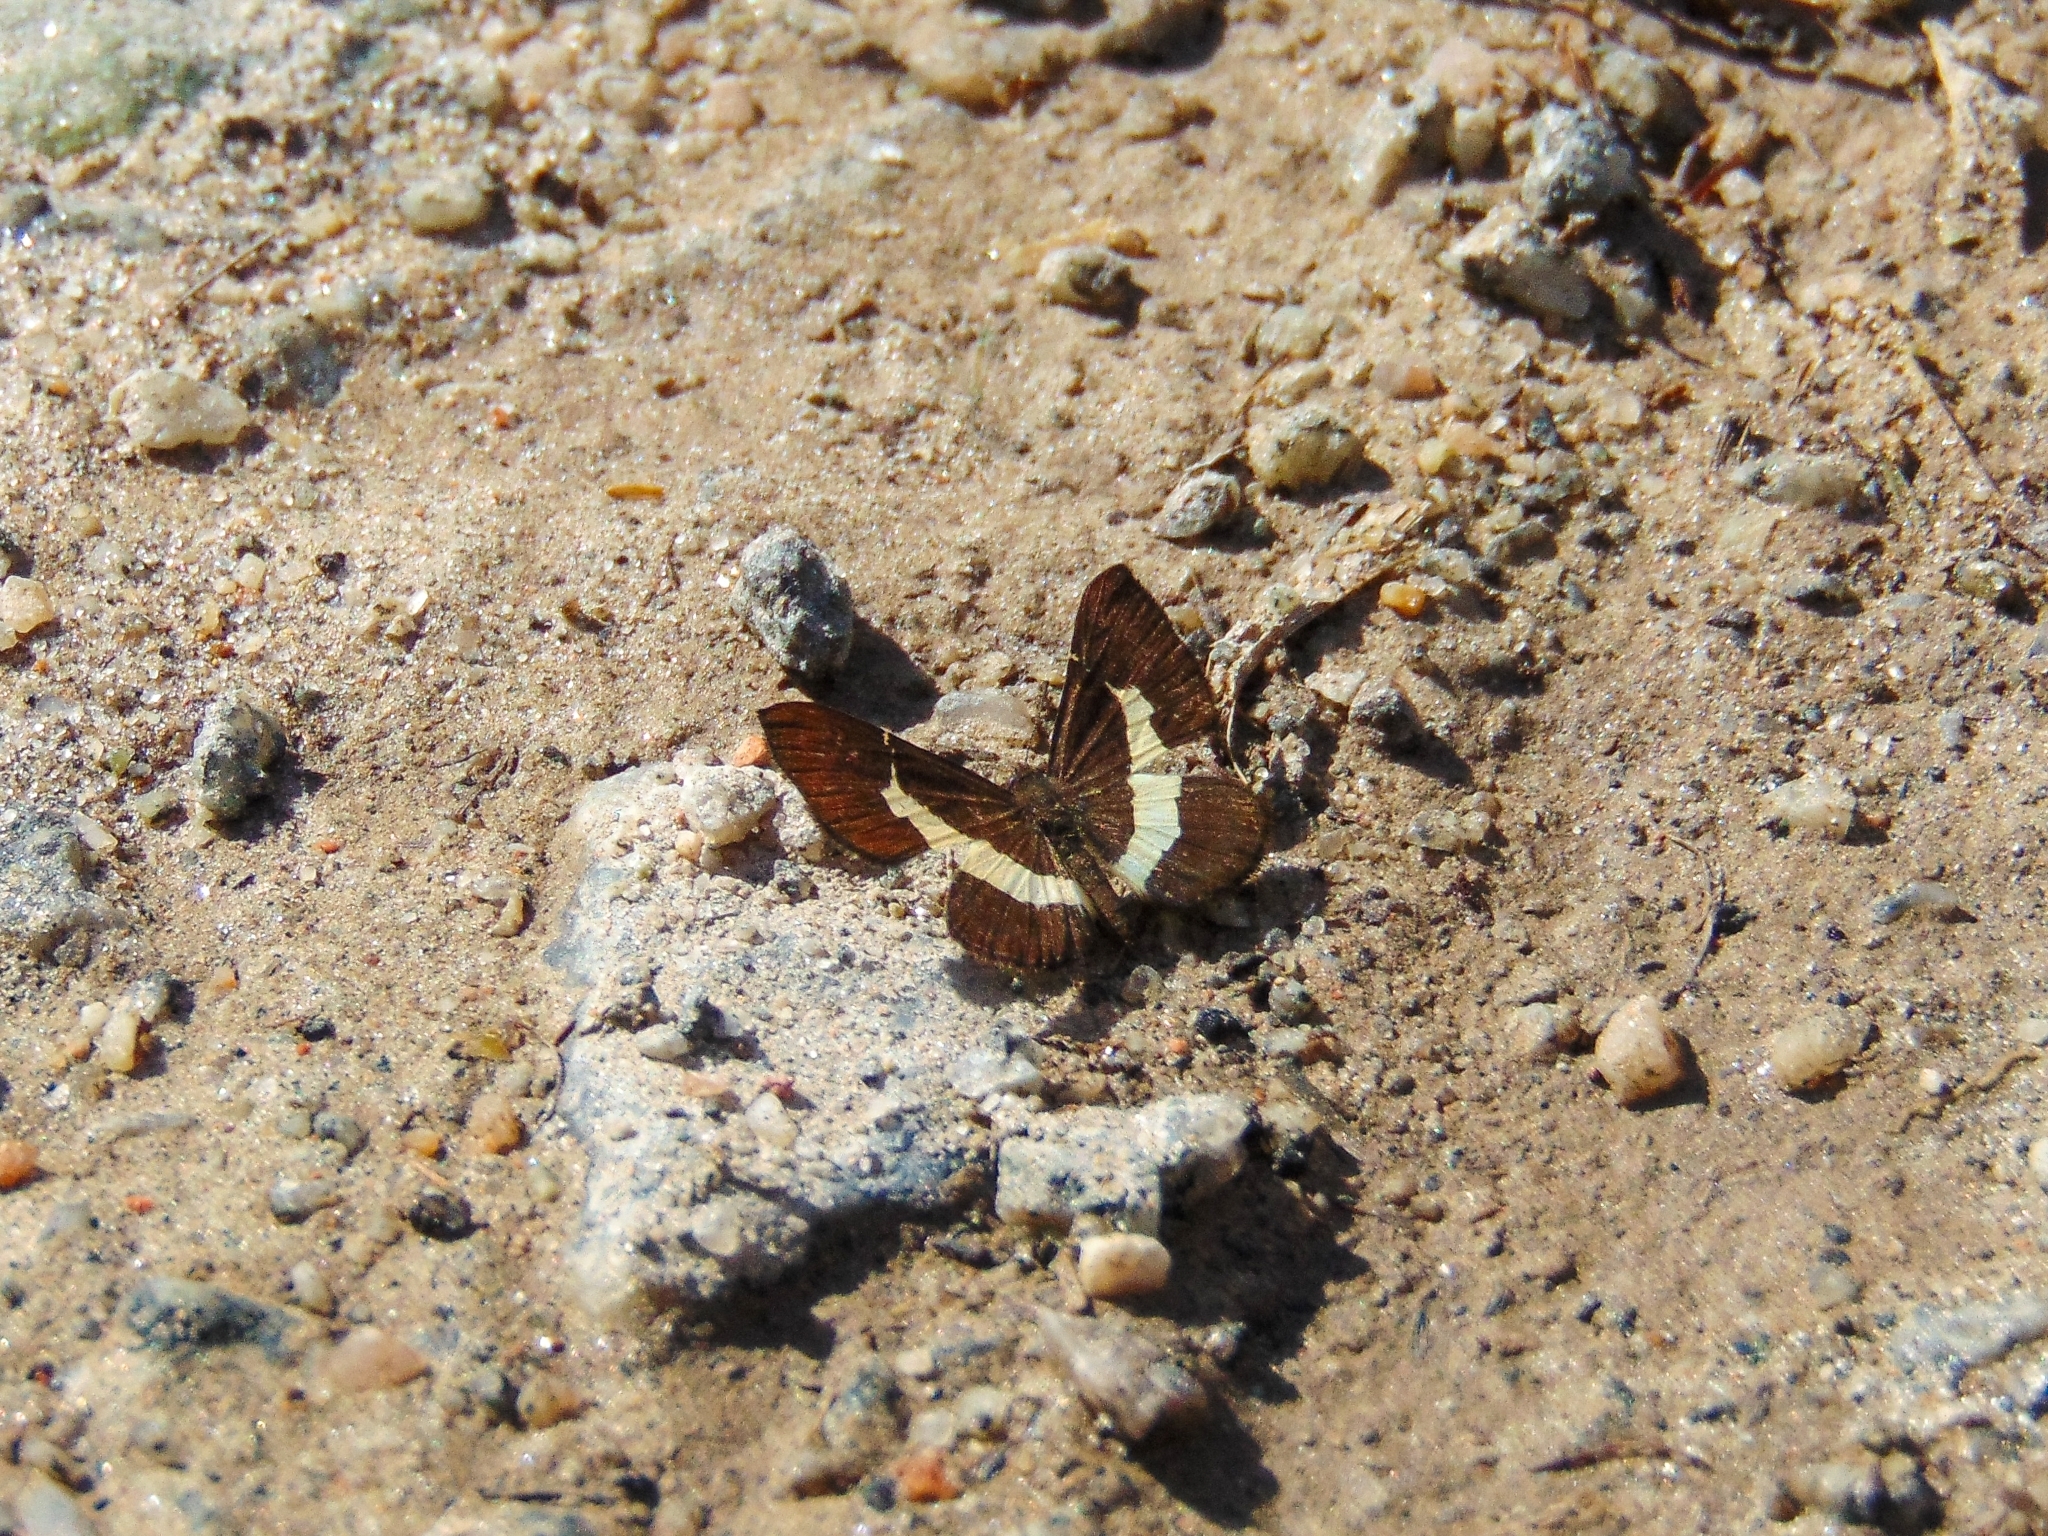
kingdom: Animalia
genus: Baeotis
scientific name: Baeotis johannae
